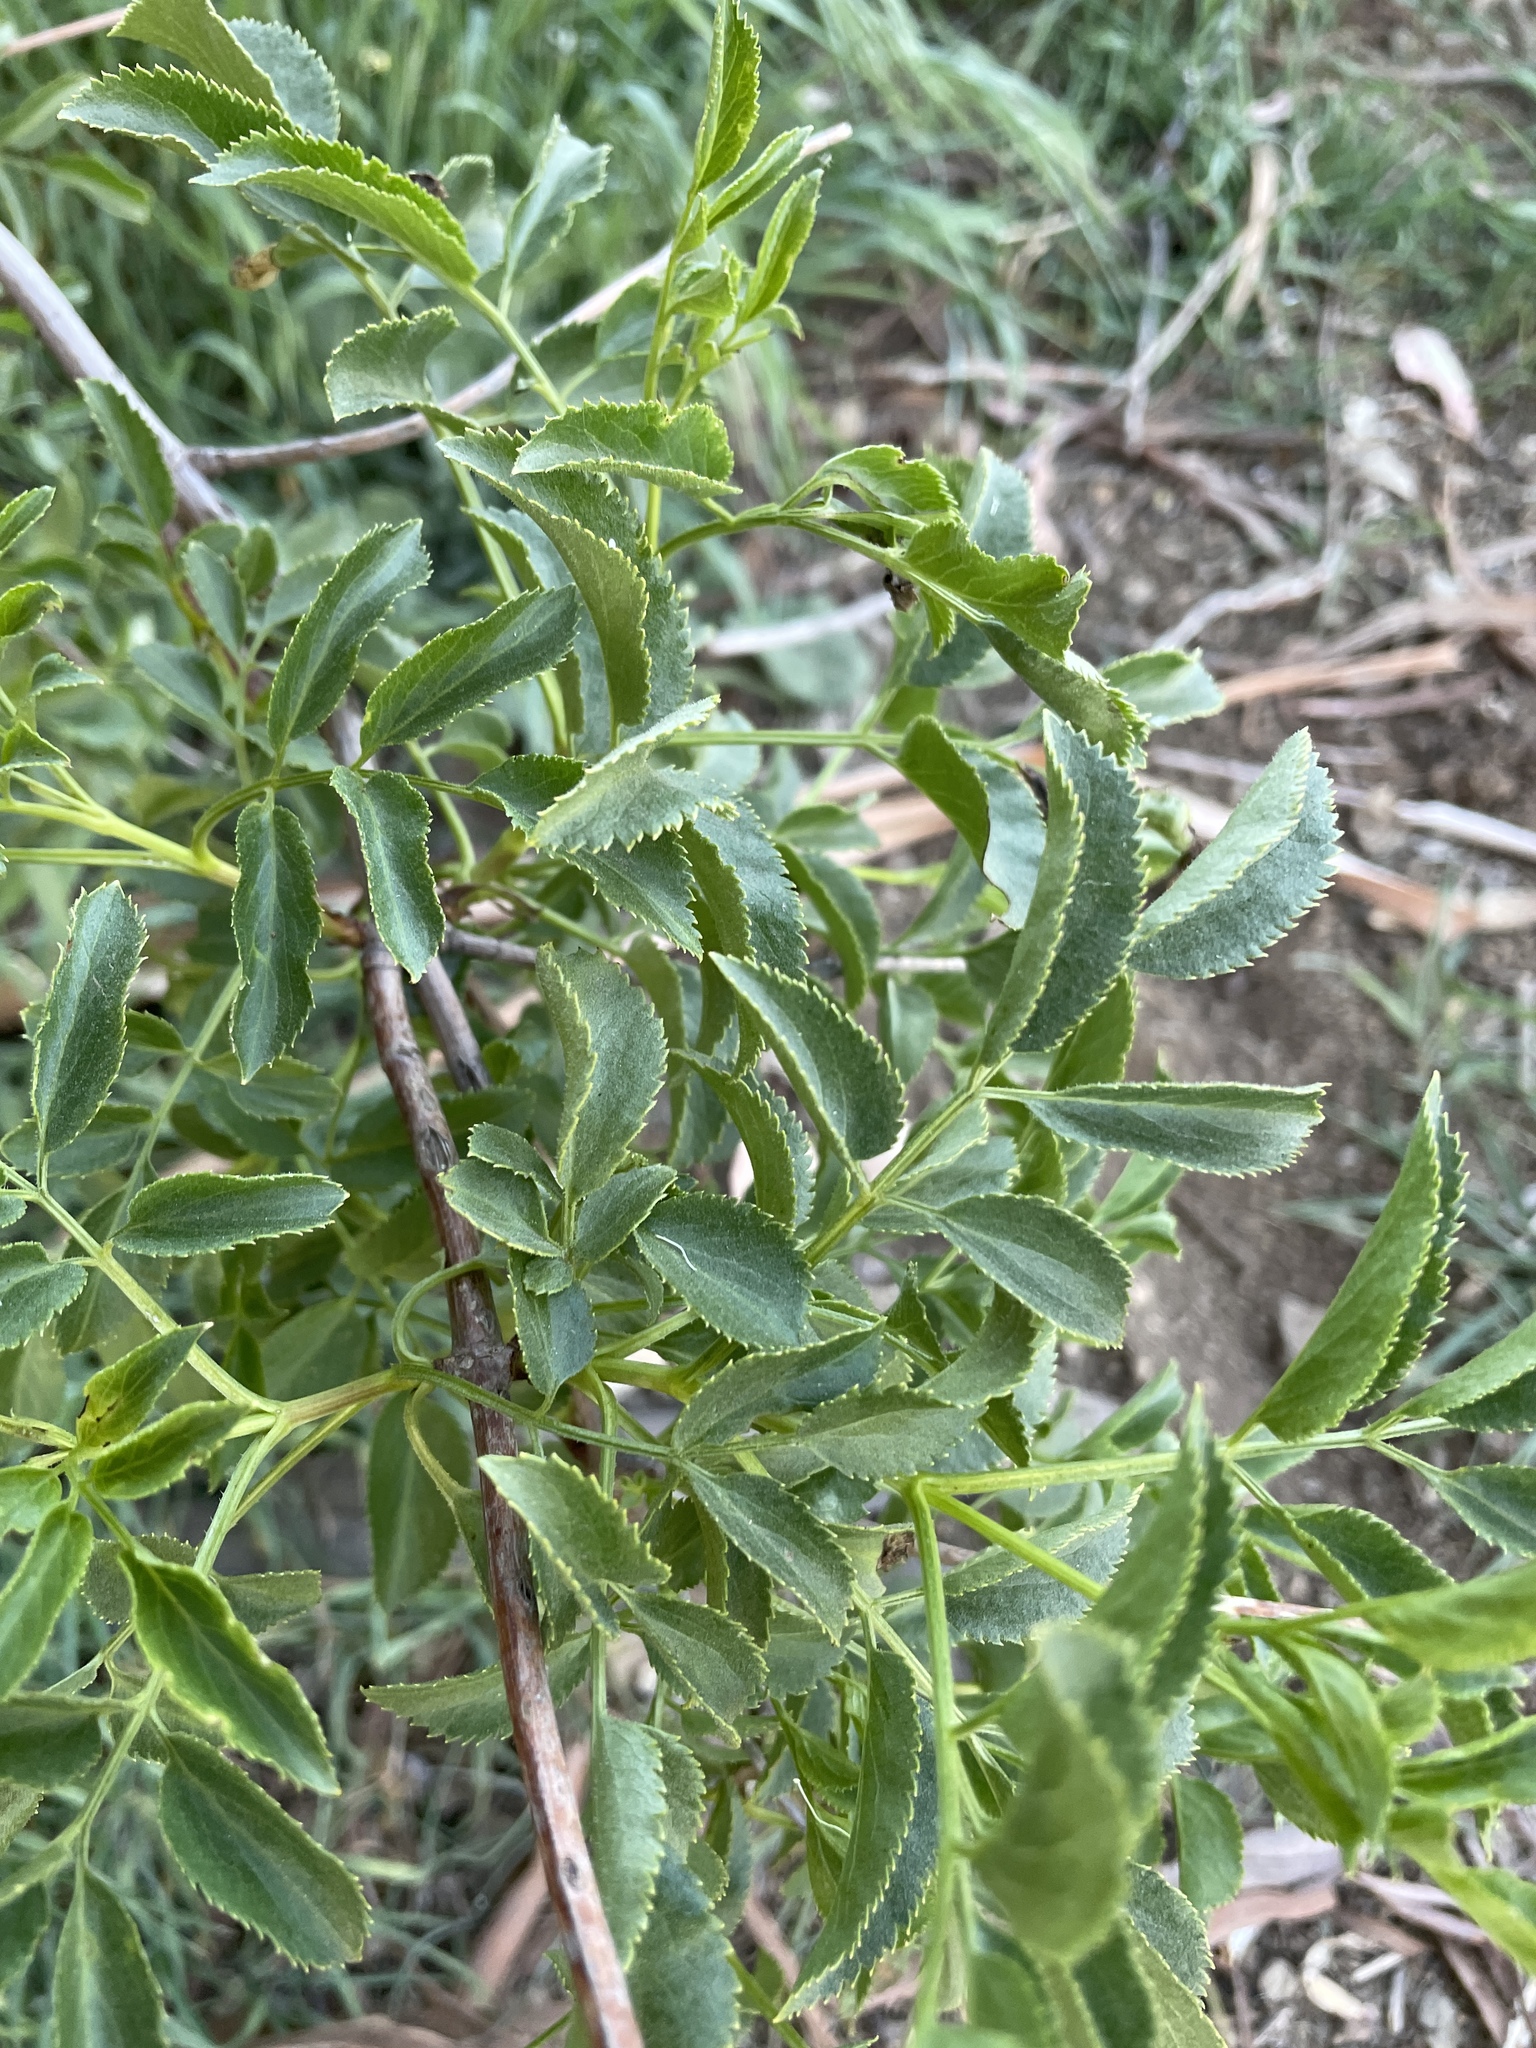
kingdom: Plantae
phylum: Tracheophyta
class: Magnoliopsida
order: Dipsacales
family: Viburnaceae
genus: Sambucus
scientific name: Sambucus cerulea
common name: Blue elder
